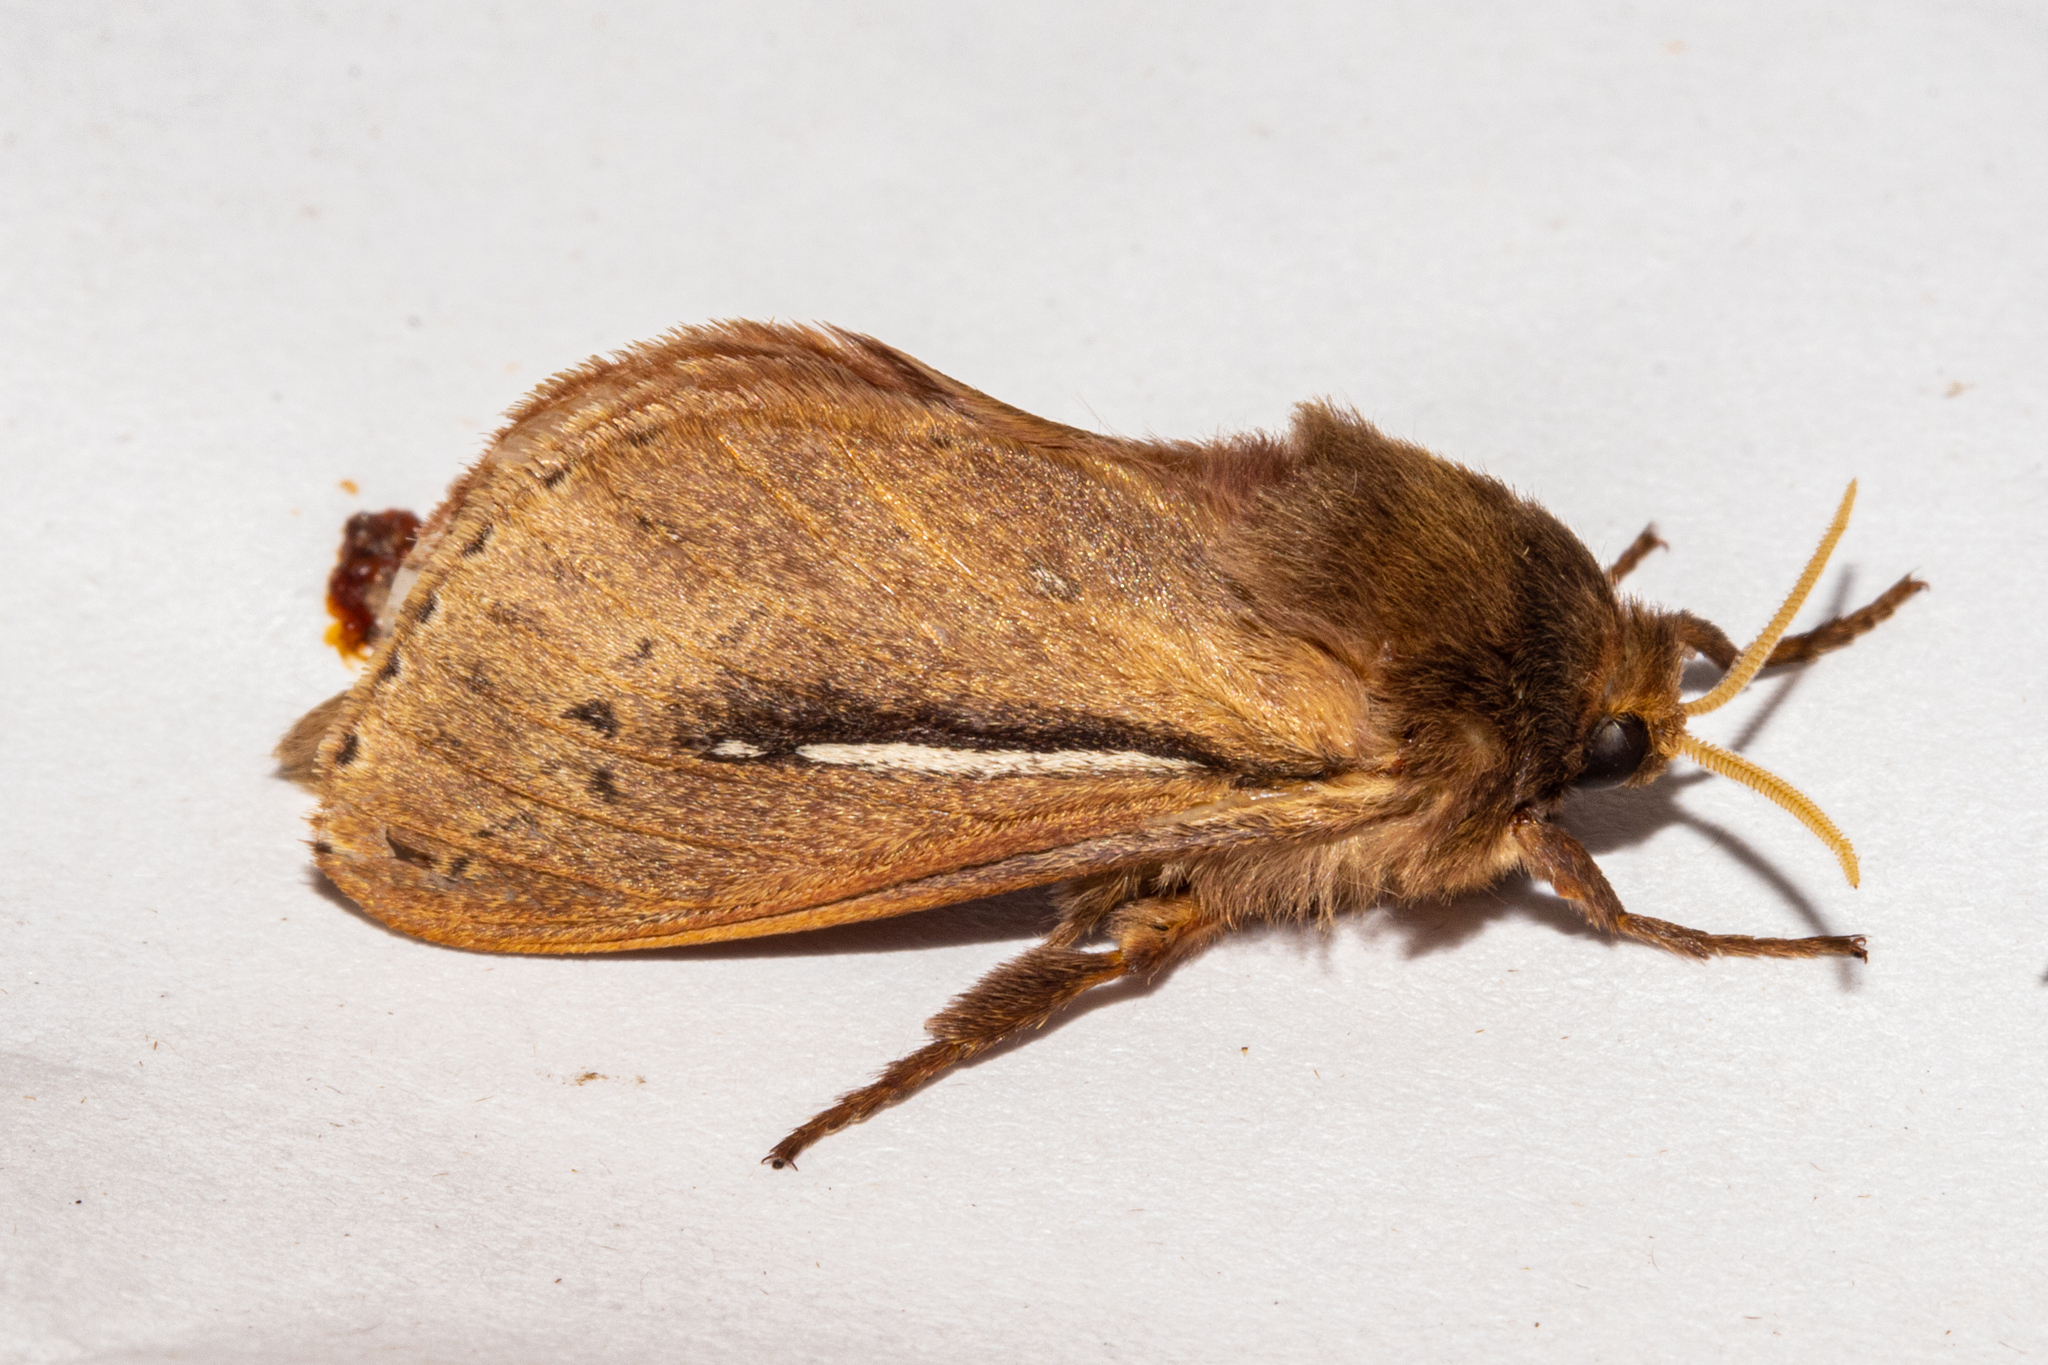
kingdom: Animalia
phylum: Arthropoda
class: Insecta
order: Lepidoptera
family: Hepialidae
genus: Wiseana
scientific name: Wiseana umbraculatus
